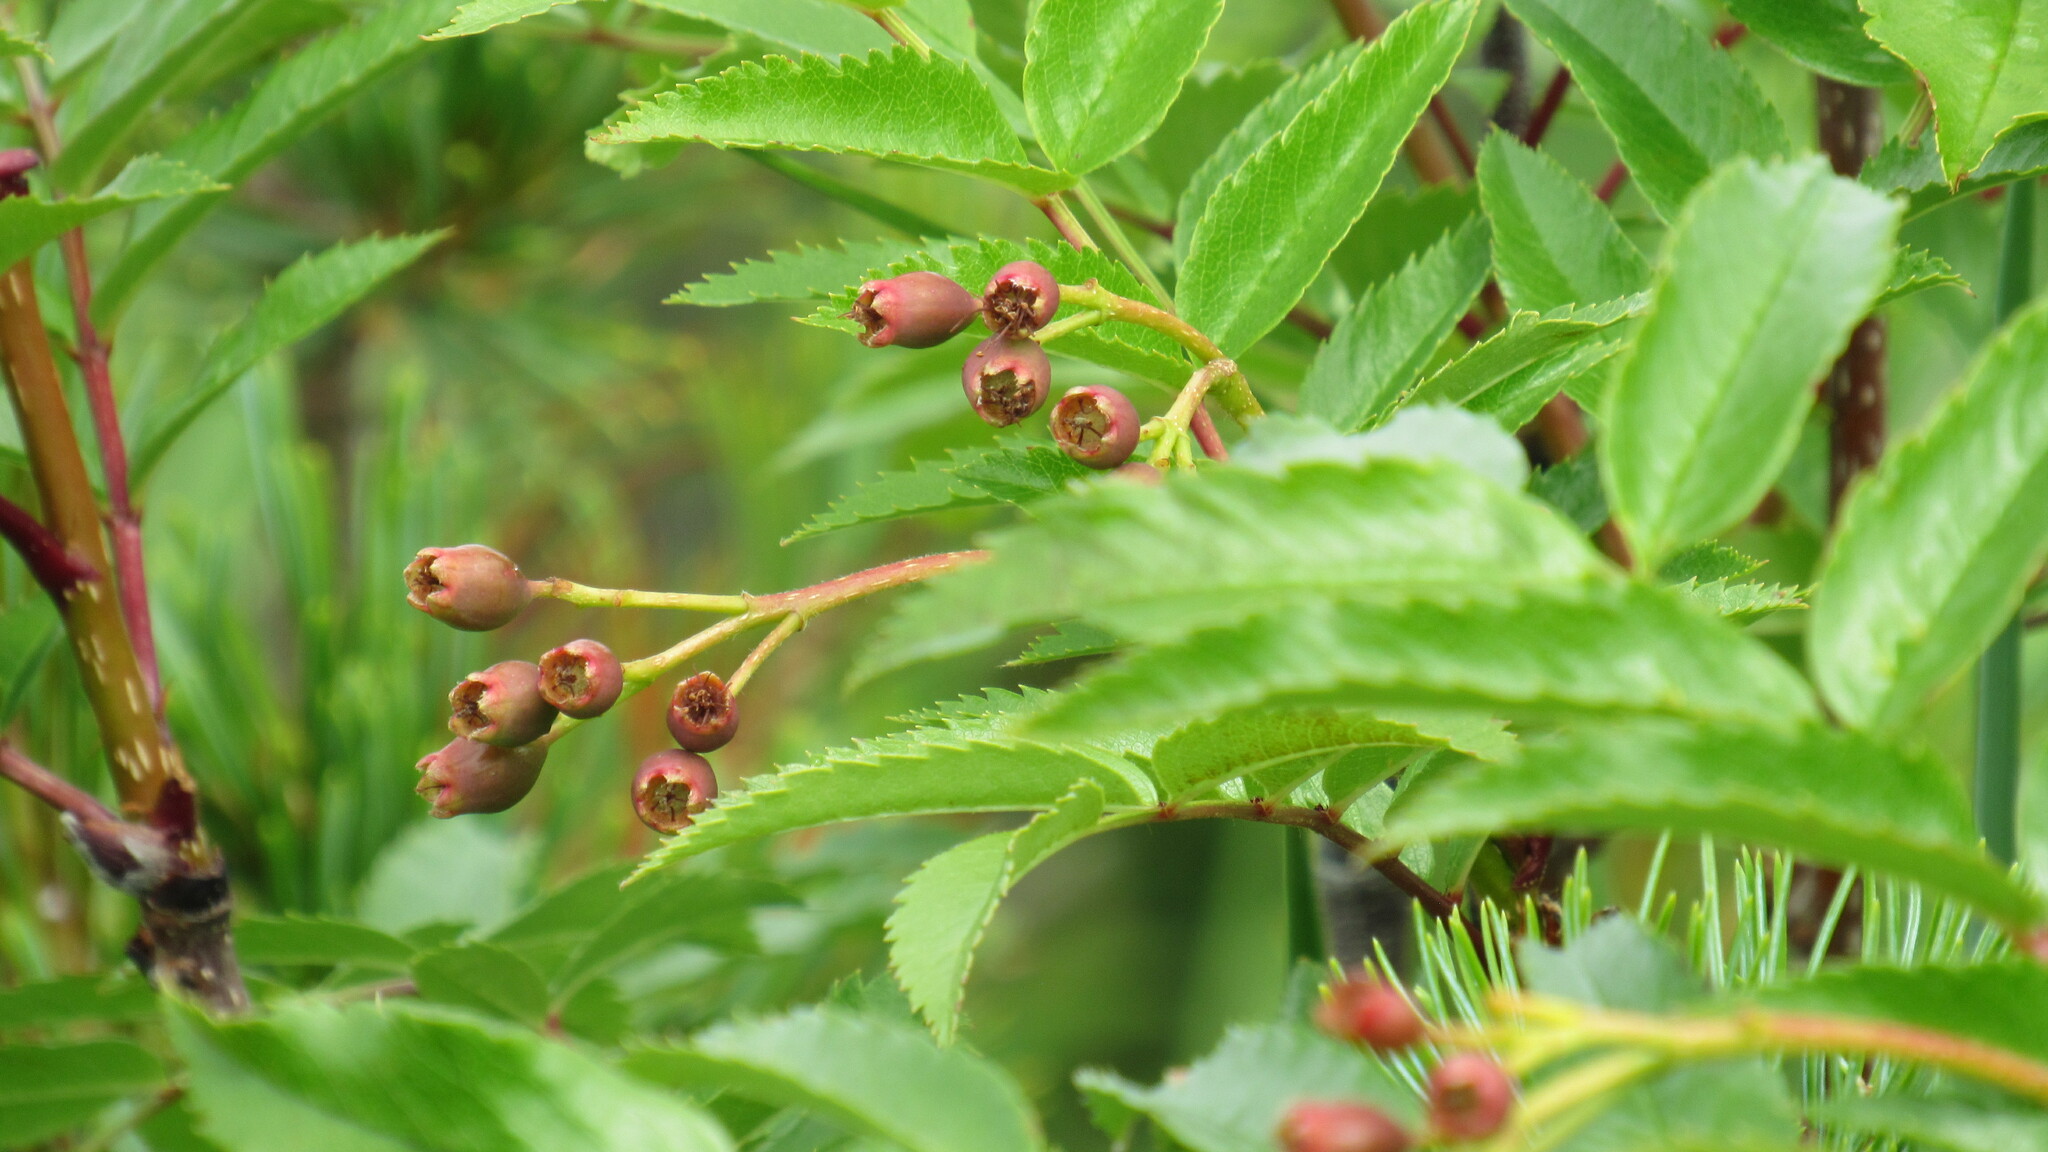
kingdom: Plantae
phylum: Tracheophyta
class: Magnoliopsida
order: Rosales
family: Rosaceae
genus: Sorbus
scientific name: Sorbus sambucifolia
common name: Siberian mountain-ash
